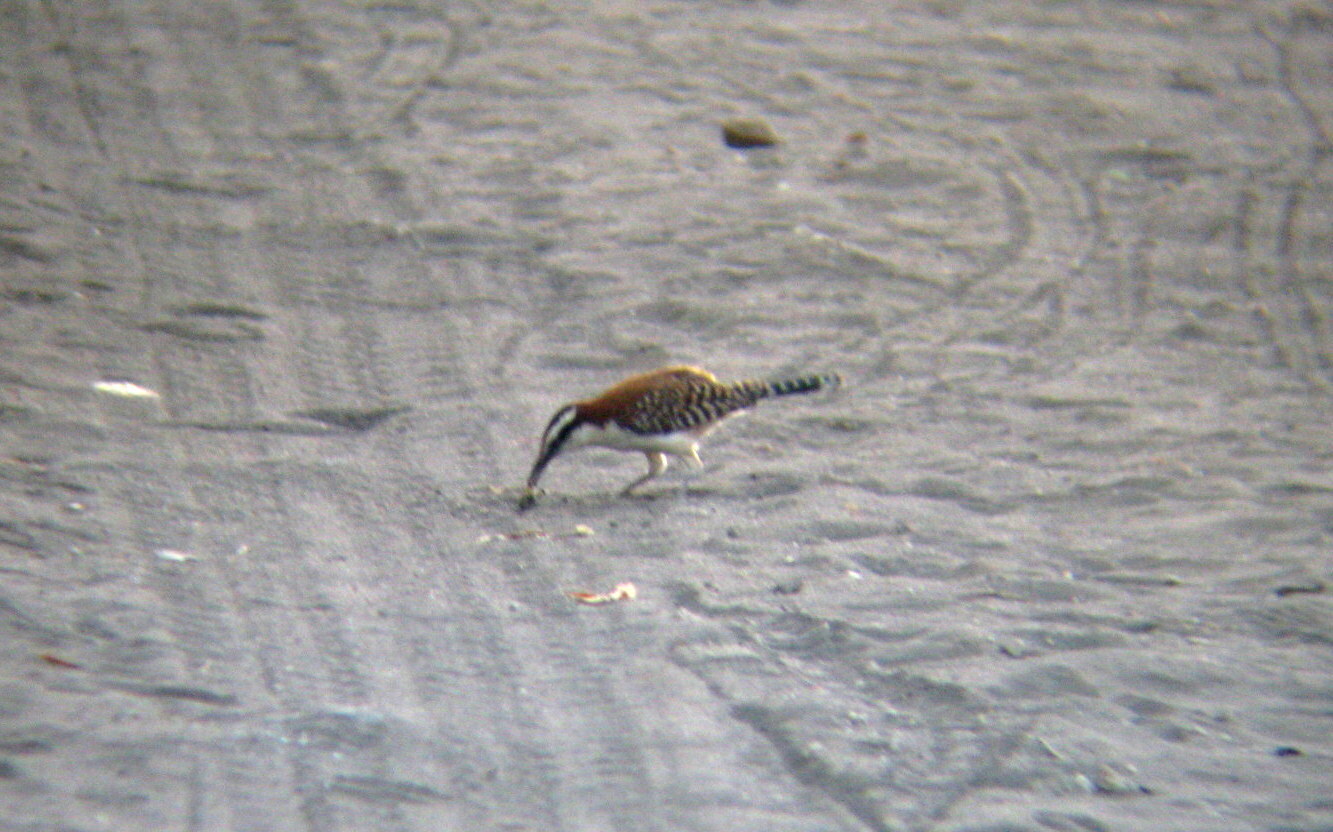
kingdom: Animalia
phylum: Chordata
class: Aves
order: Passeriformes
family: Troglodytidae
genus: Campylorhynchus
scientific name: Campylorhynchus rufinucha
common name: Rufous-naped wren
